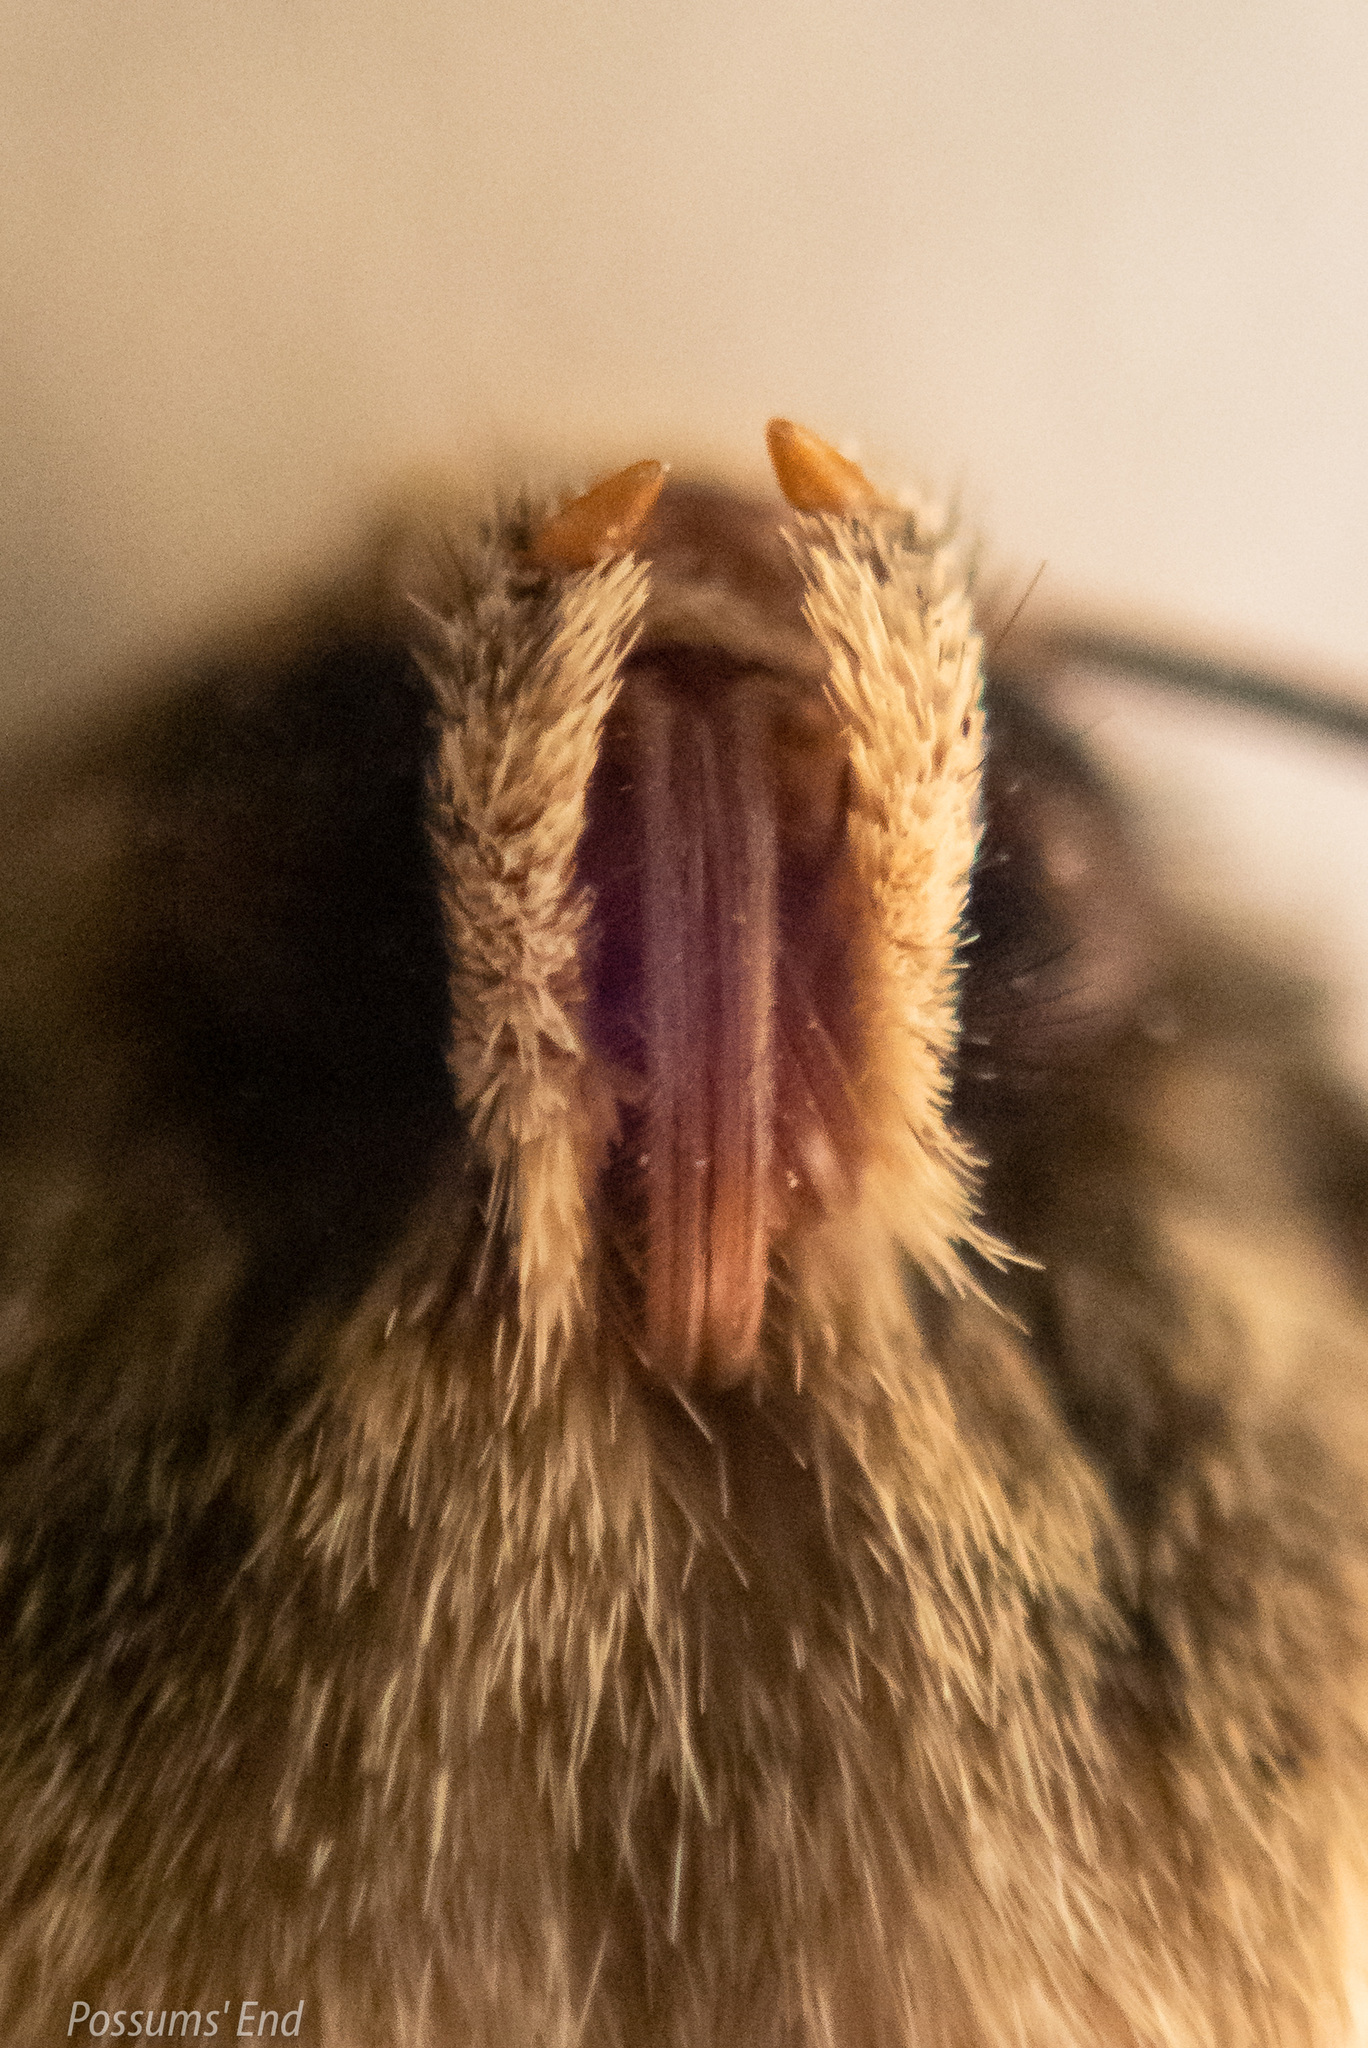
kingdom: Animalia
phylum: Arthropoda
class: Insecta
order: Lepidoptera
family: Noctuidae
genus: Ichneutica
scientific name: Ichneutica moderata
